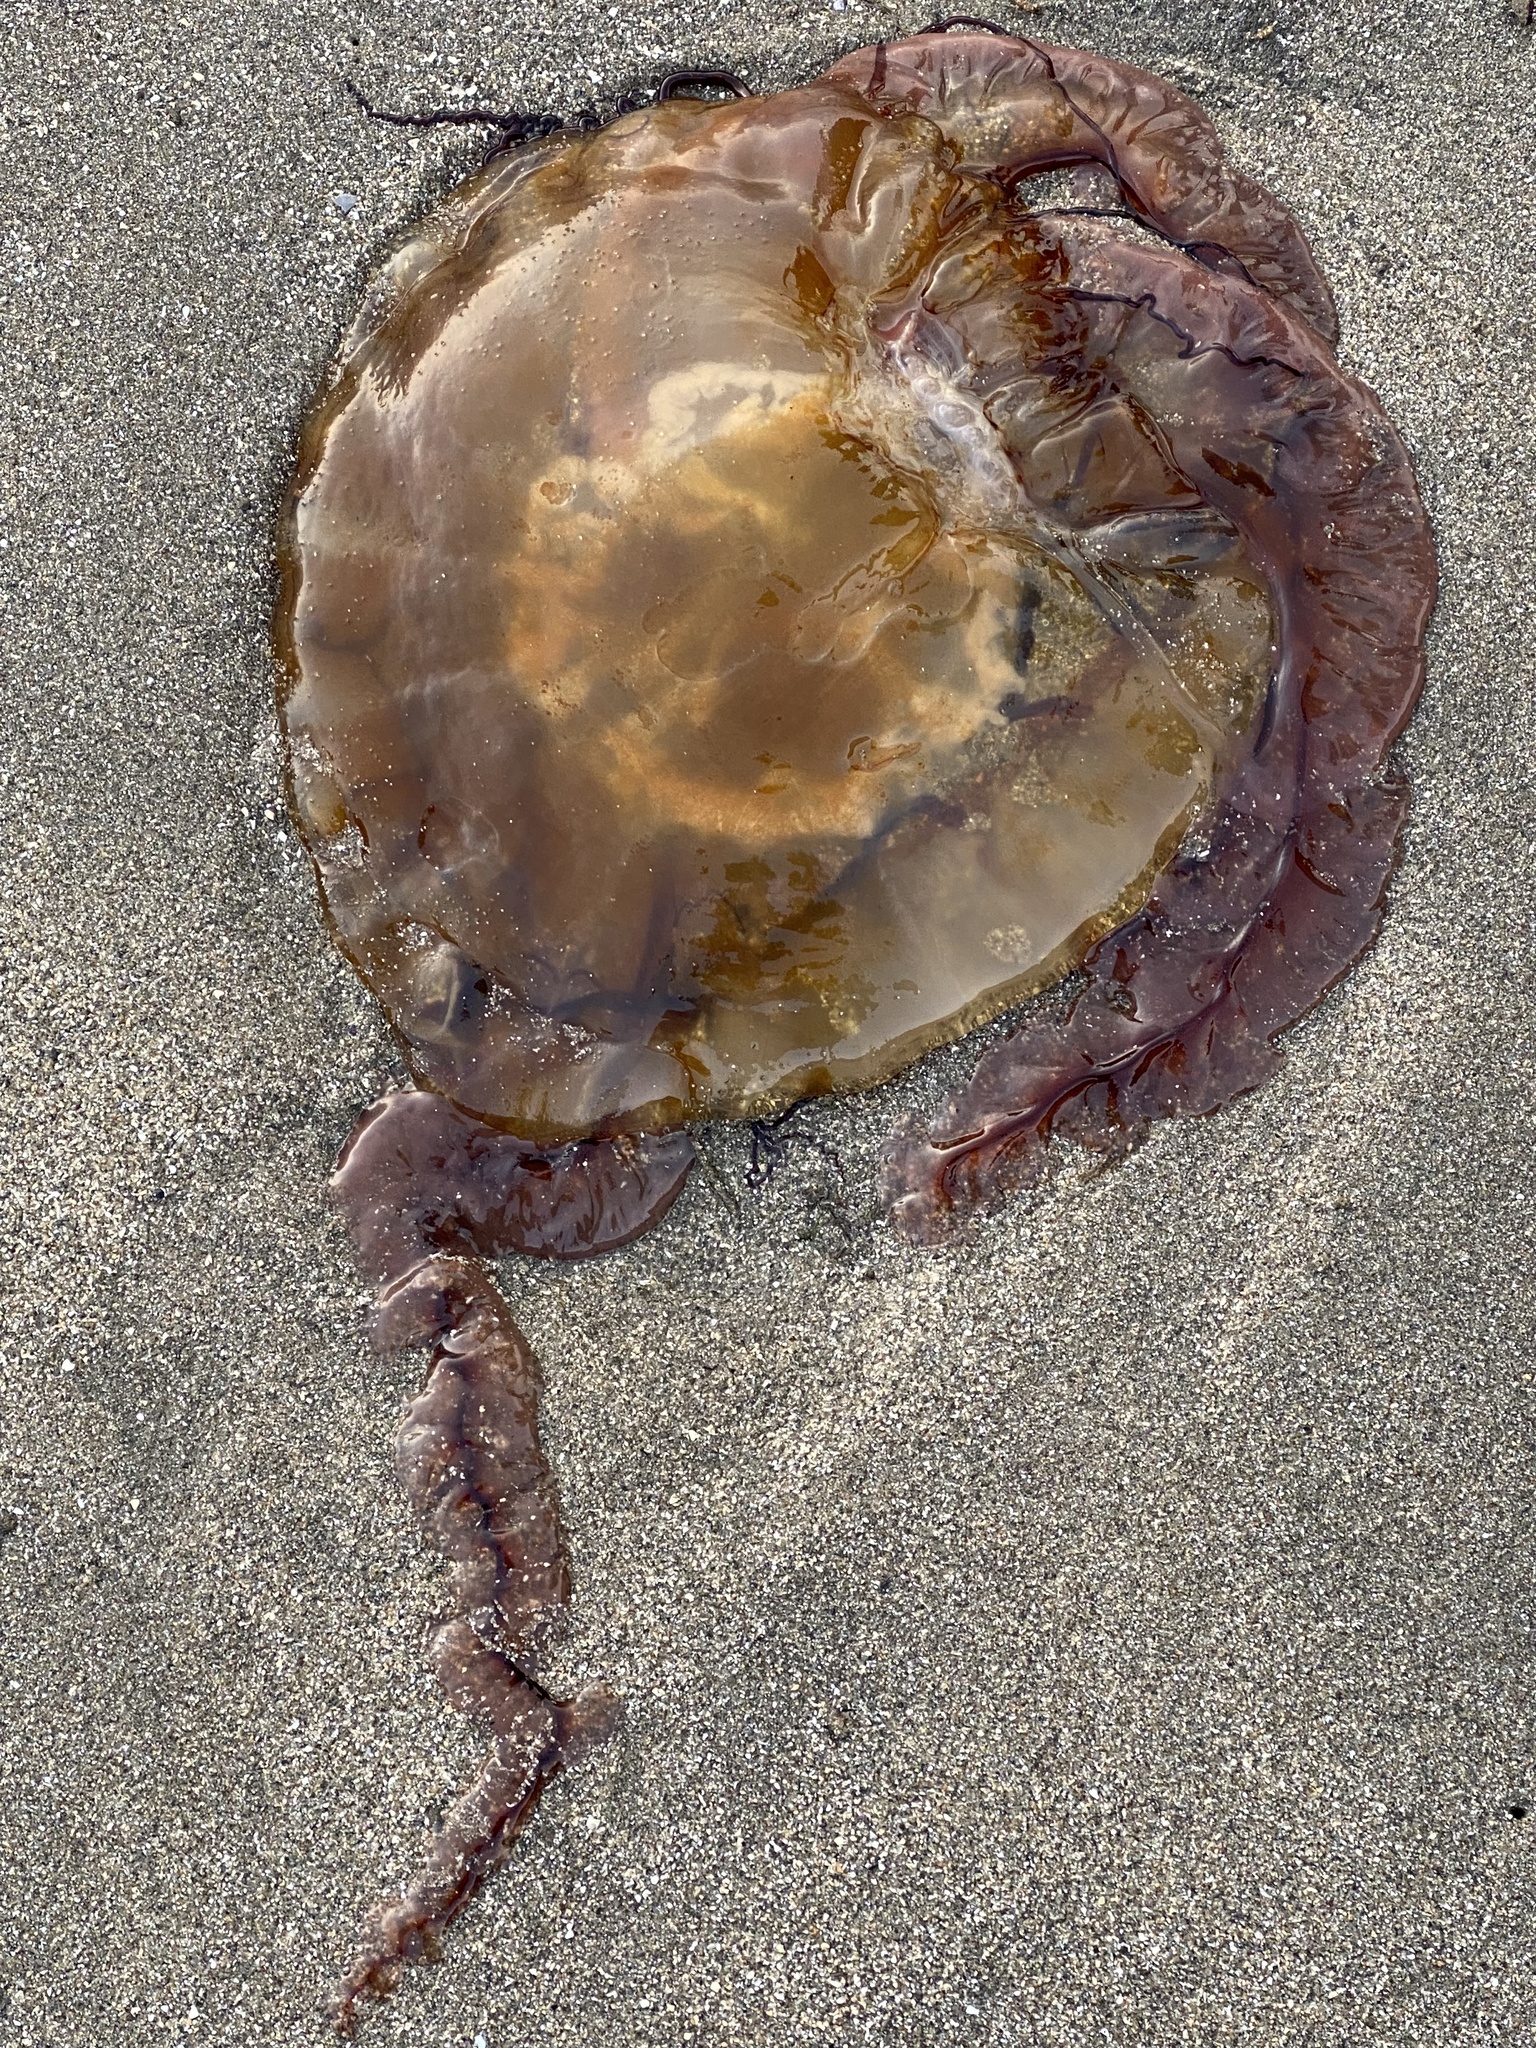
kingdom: Animalia
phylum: Cnidaria
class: Scyphozoa
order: Semaeostomeae
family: Pelagiidae
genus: Chrysaora
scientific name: Chrysaora fuscescens
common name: Sea nettle
